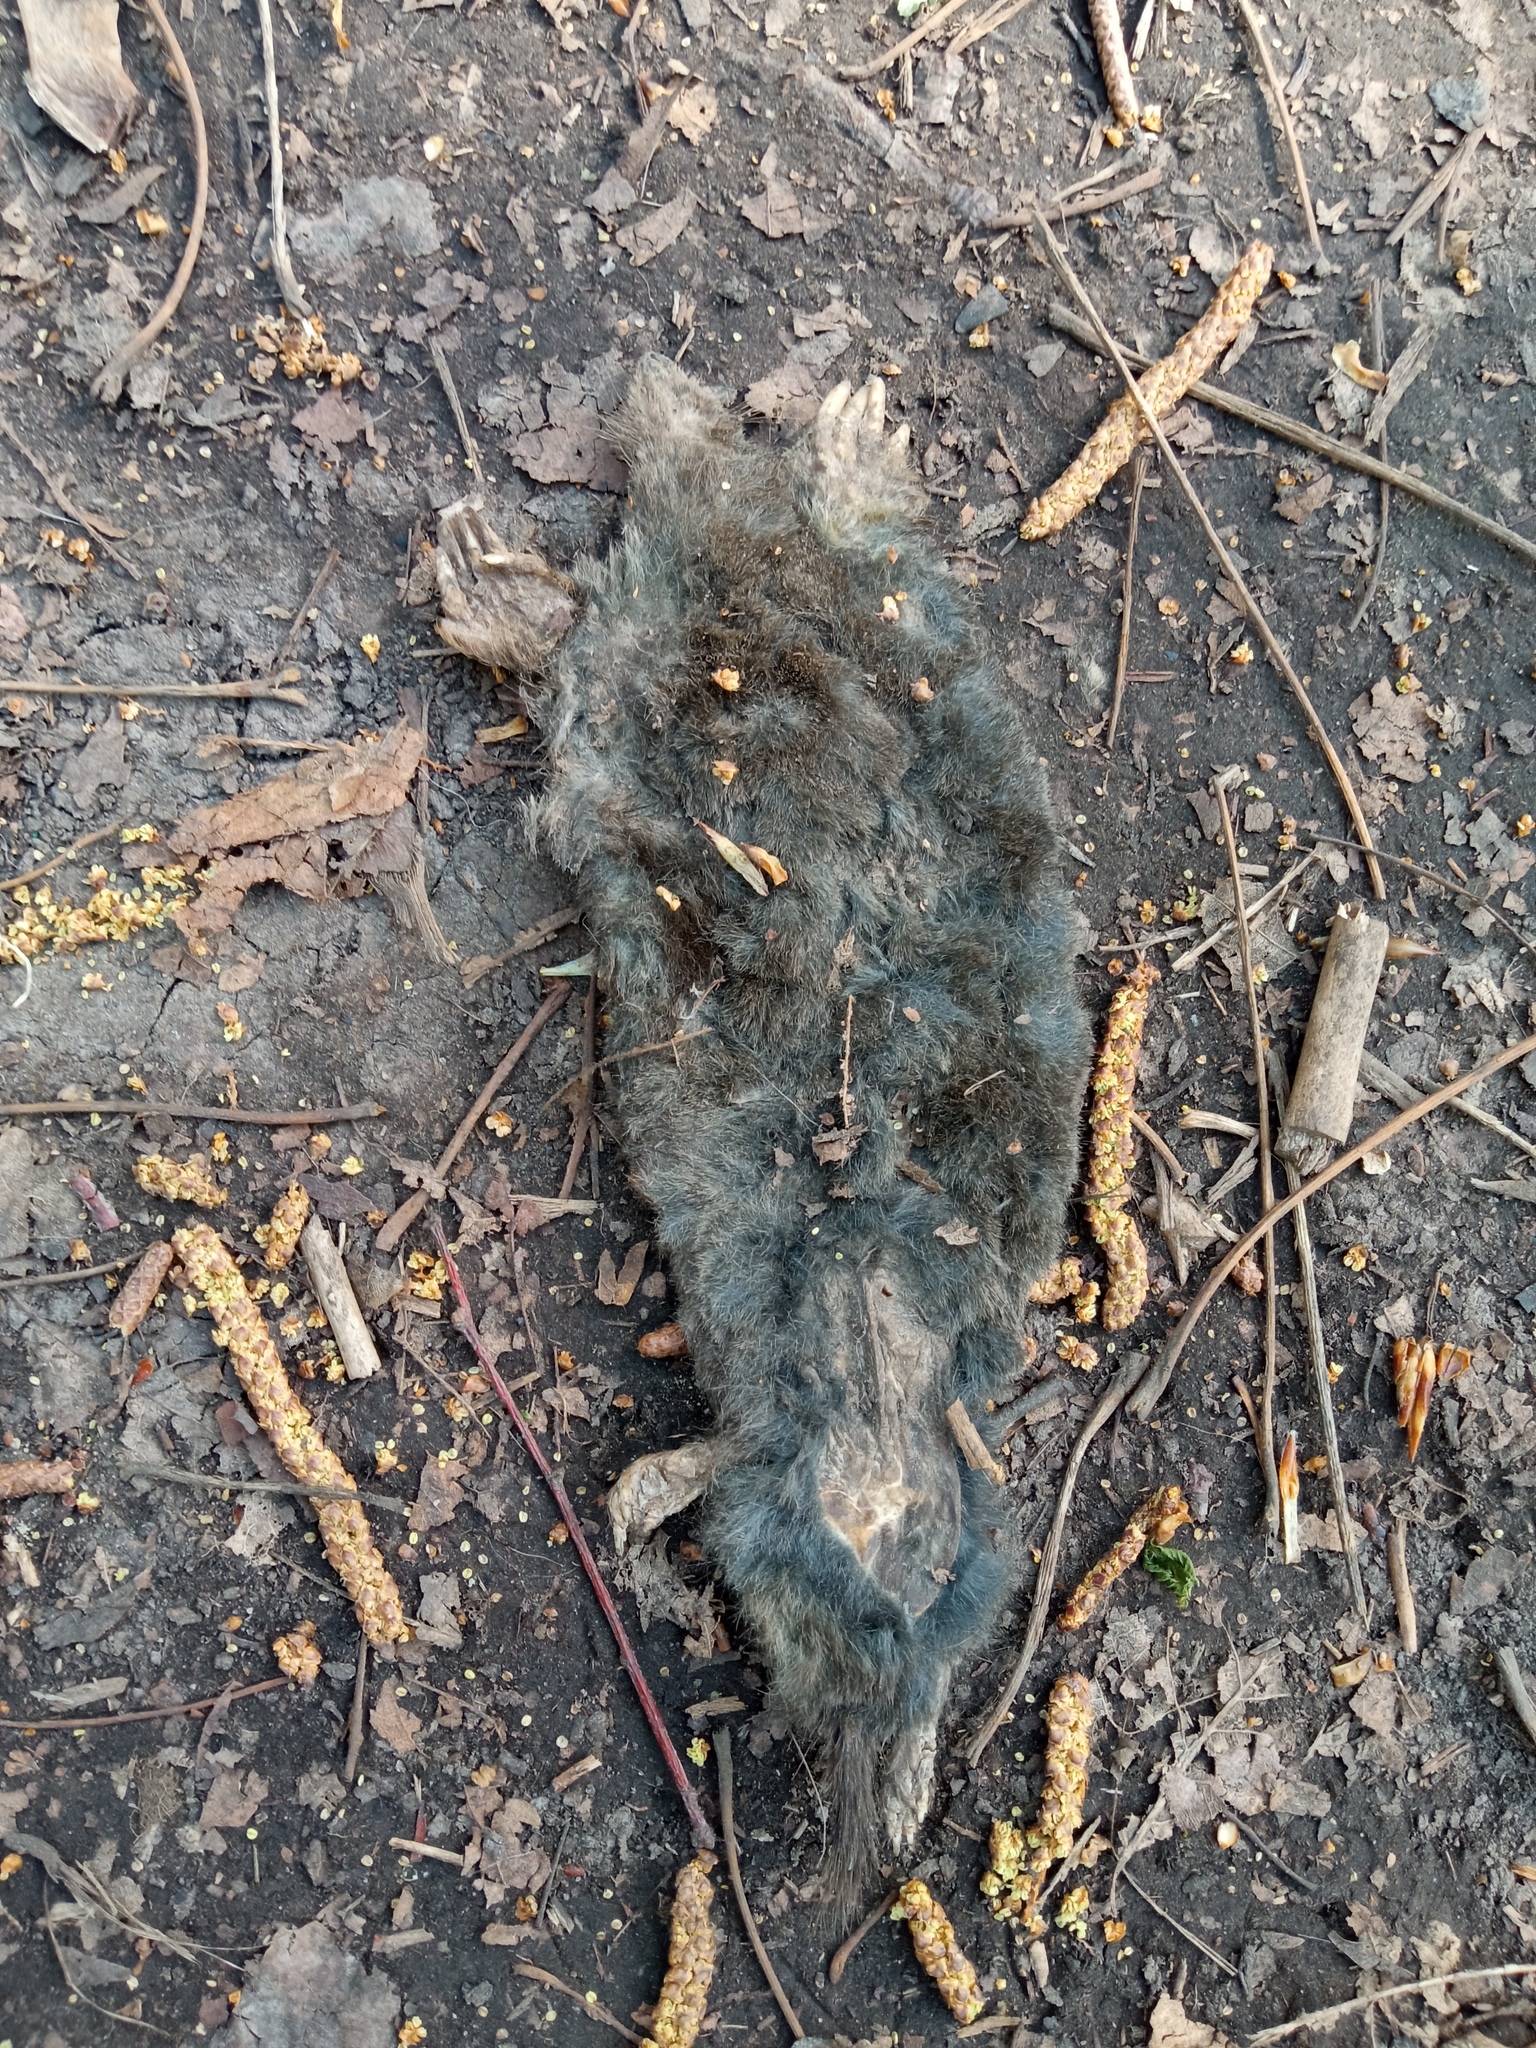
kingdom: Animalia
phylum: Chordata
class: Mammalia
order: Soricomorpha
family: Talpidae
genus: Talpa
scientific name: Talpa europaea
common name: European mole
